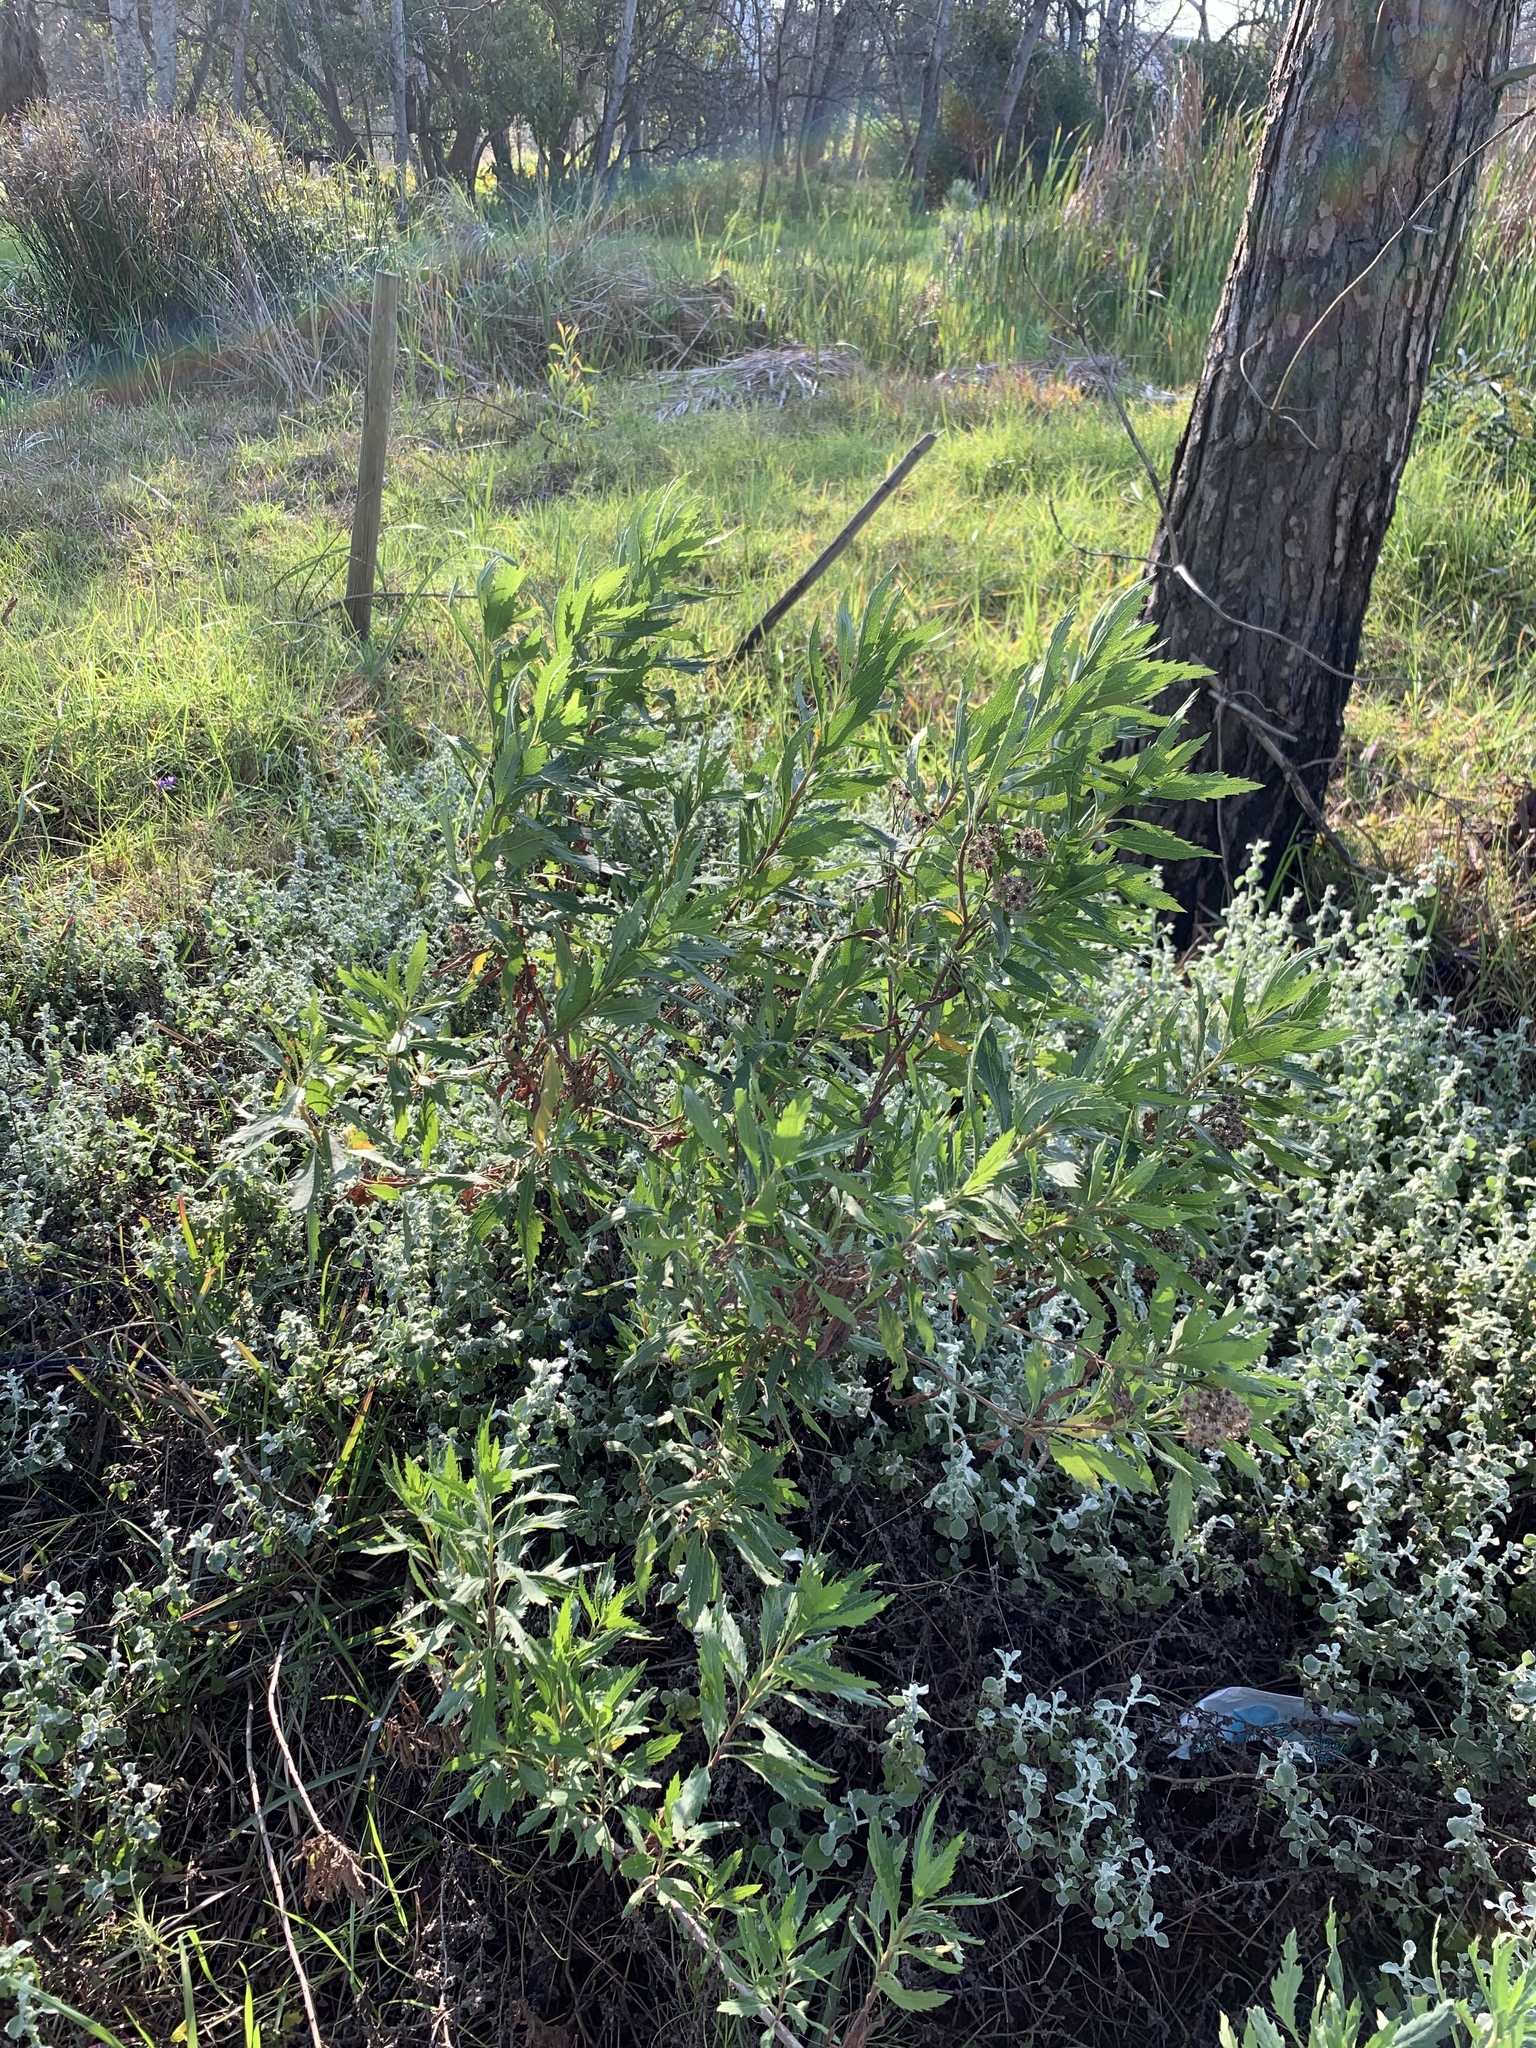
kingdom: Plantae
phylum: Tracheophyta
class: Magnoliopsida
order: Asterales
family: Asteraceae
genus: Nidorella
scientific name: Nidorella ivifolia
